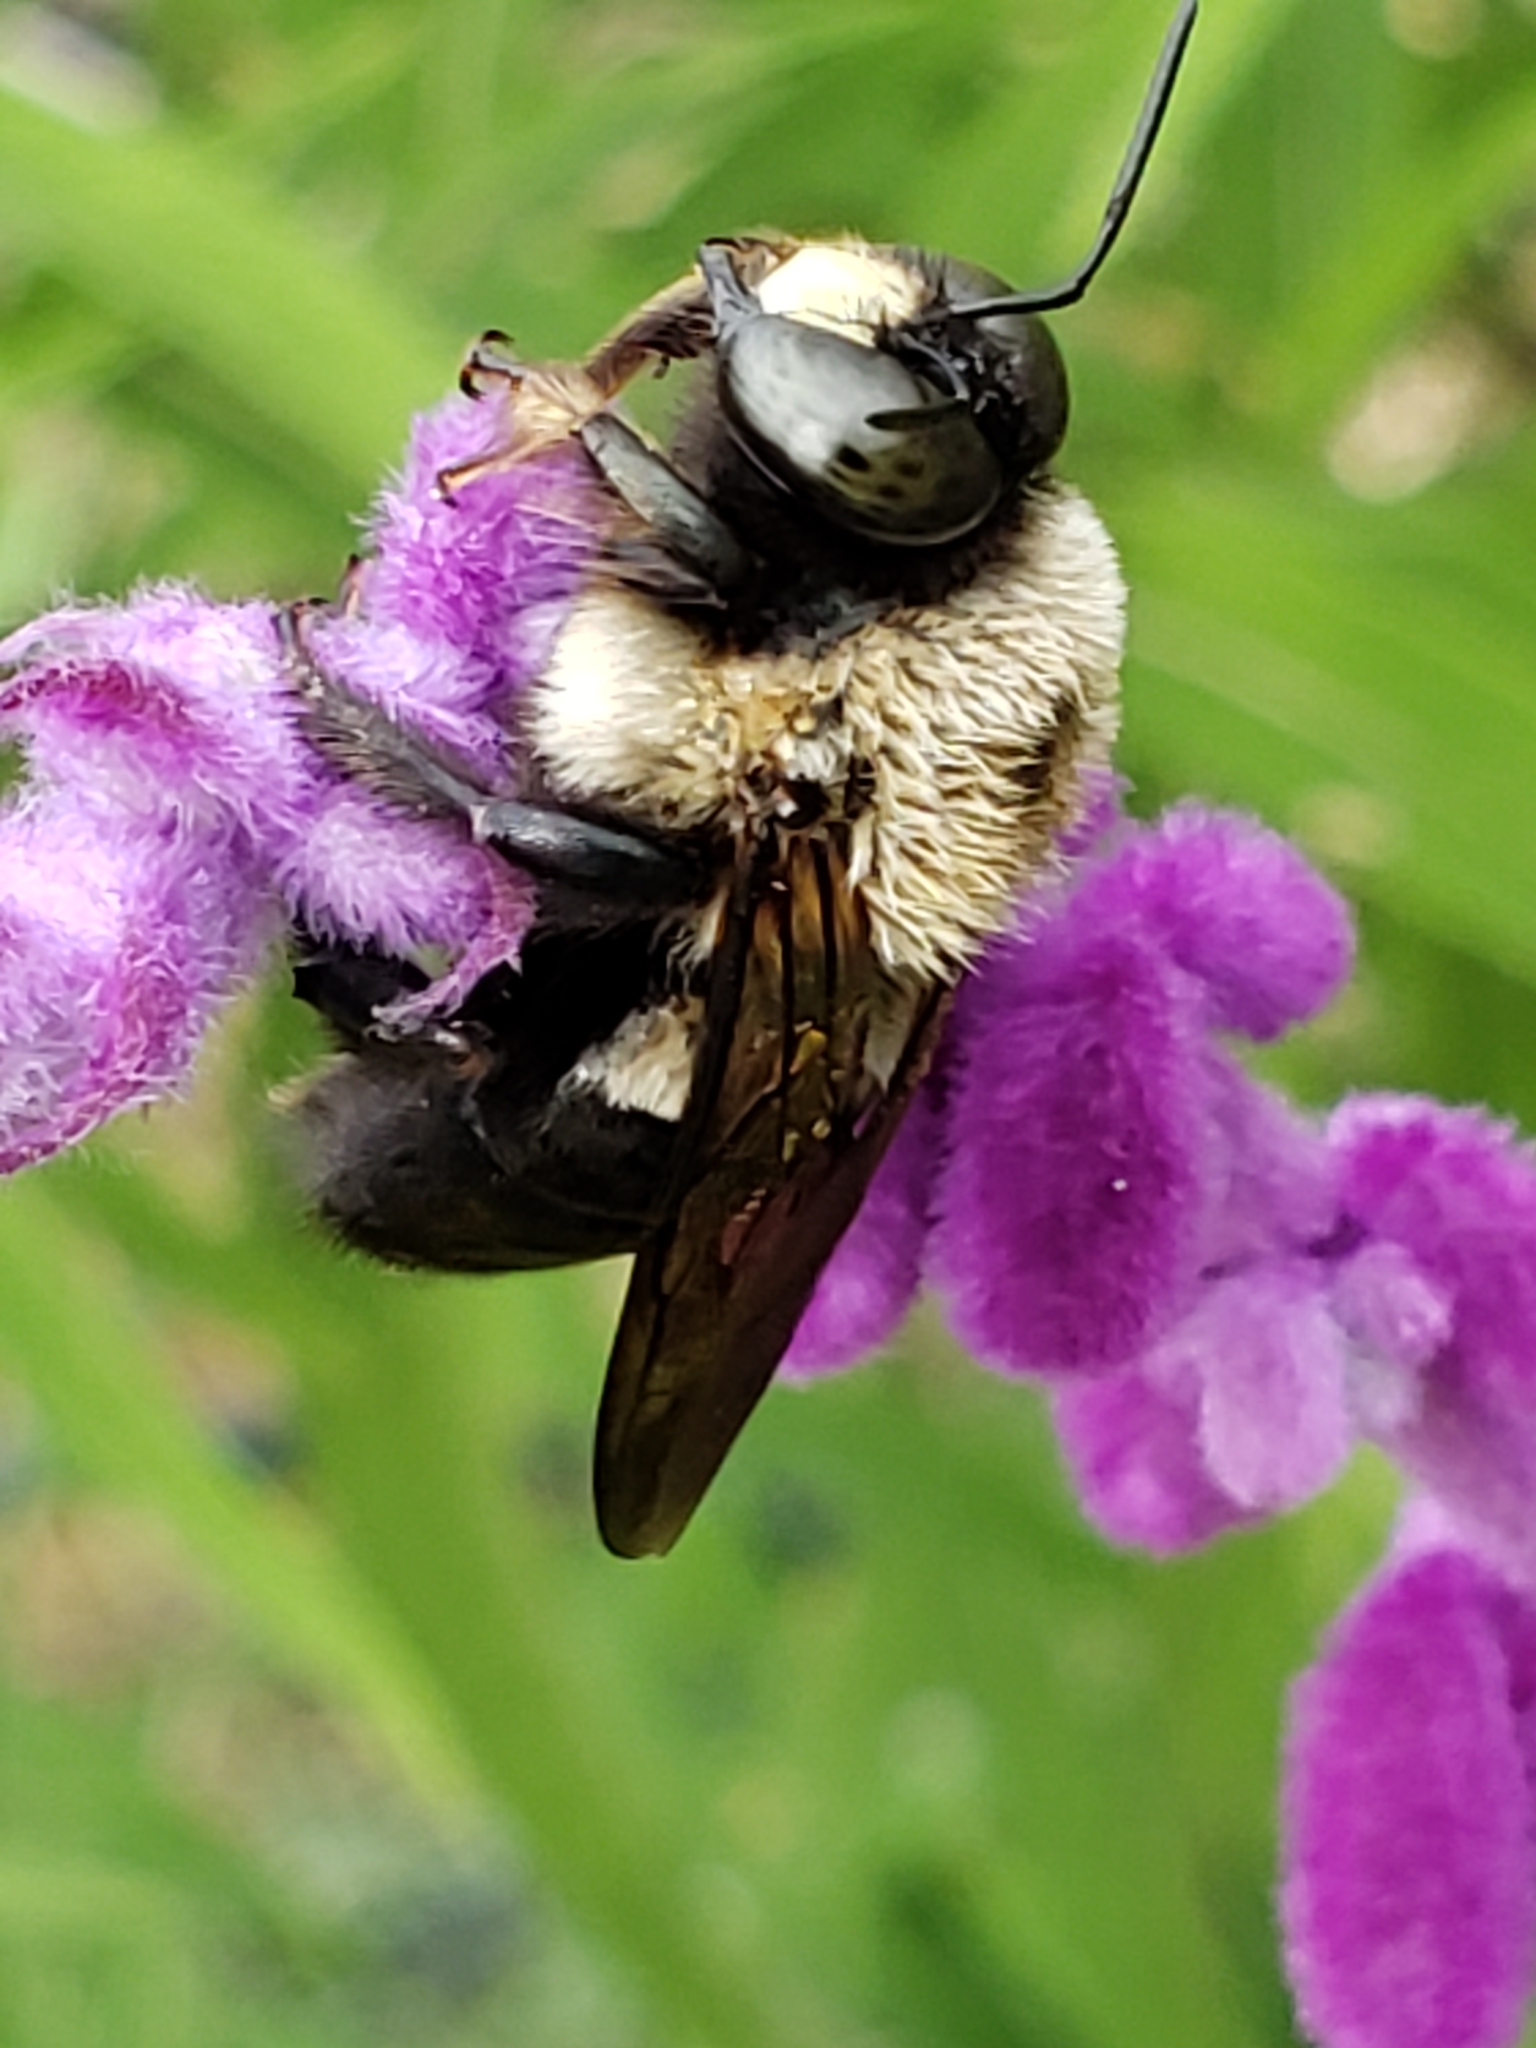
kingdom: Animalia
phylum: Arthropoda
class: Insecta
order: Hymenoptera
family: Apidae
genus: Xylocopa
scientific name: Xylocopa virginica
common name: Carpenter bee
